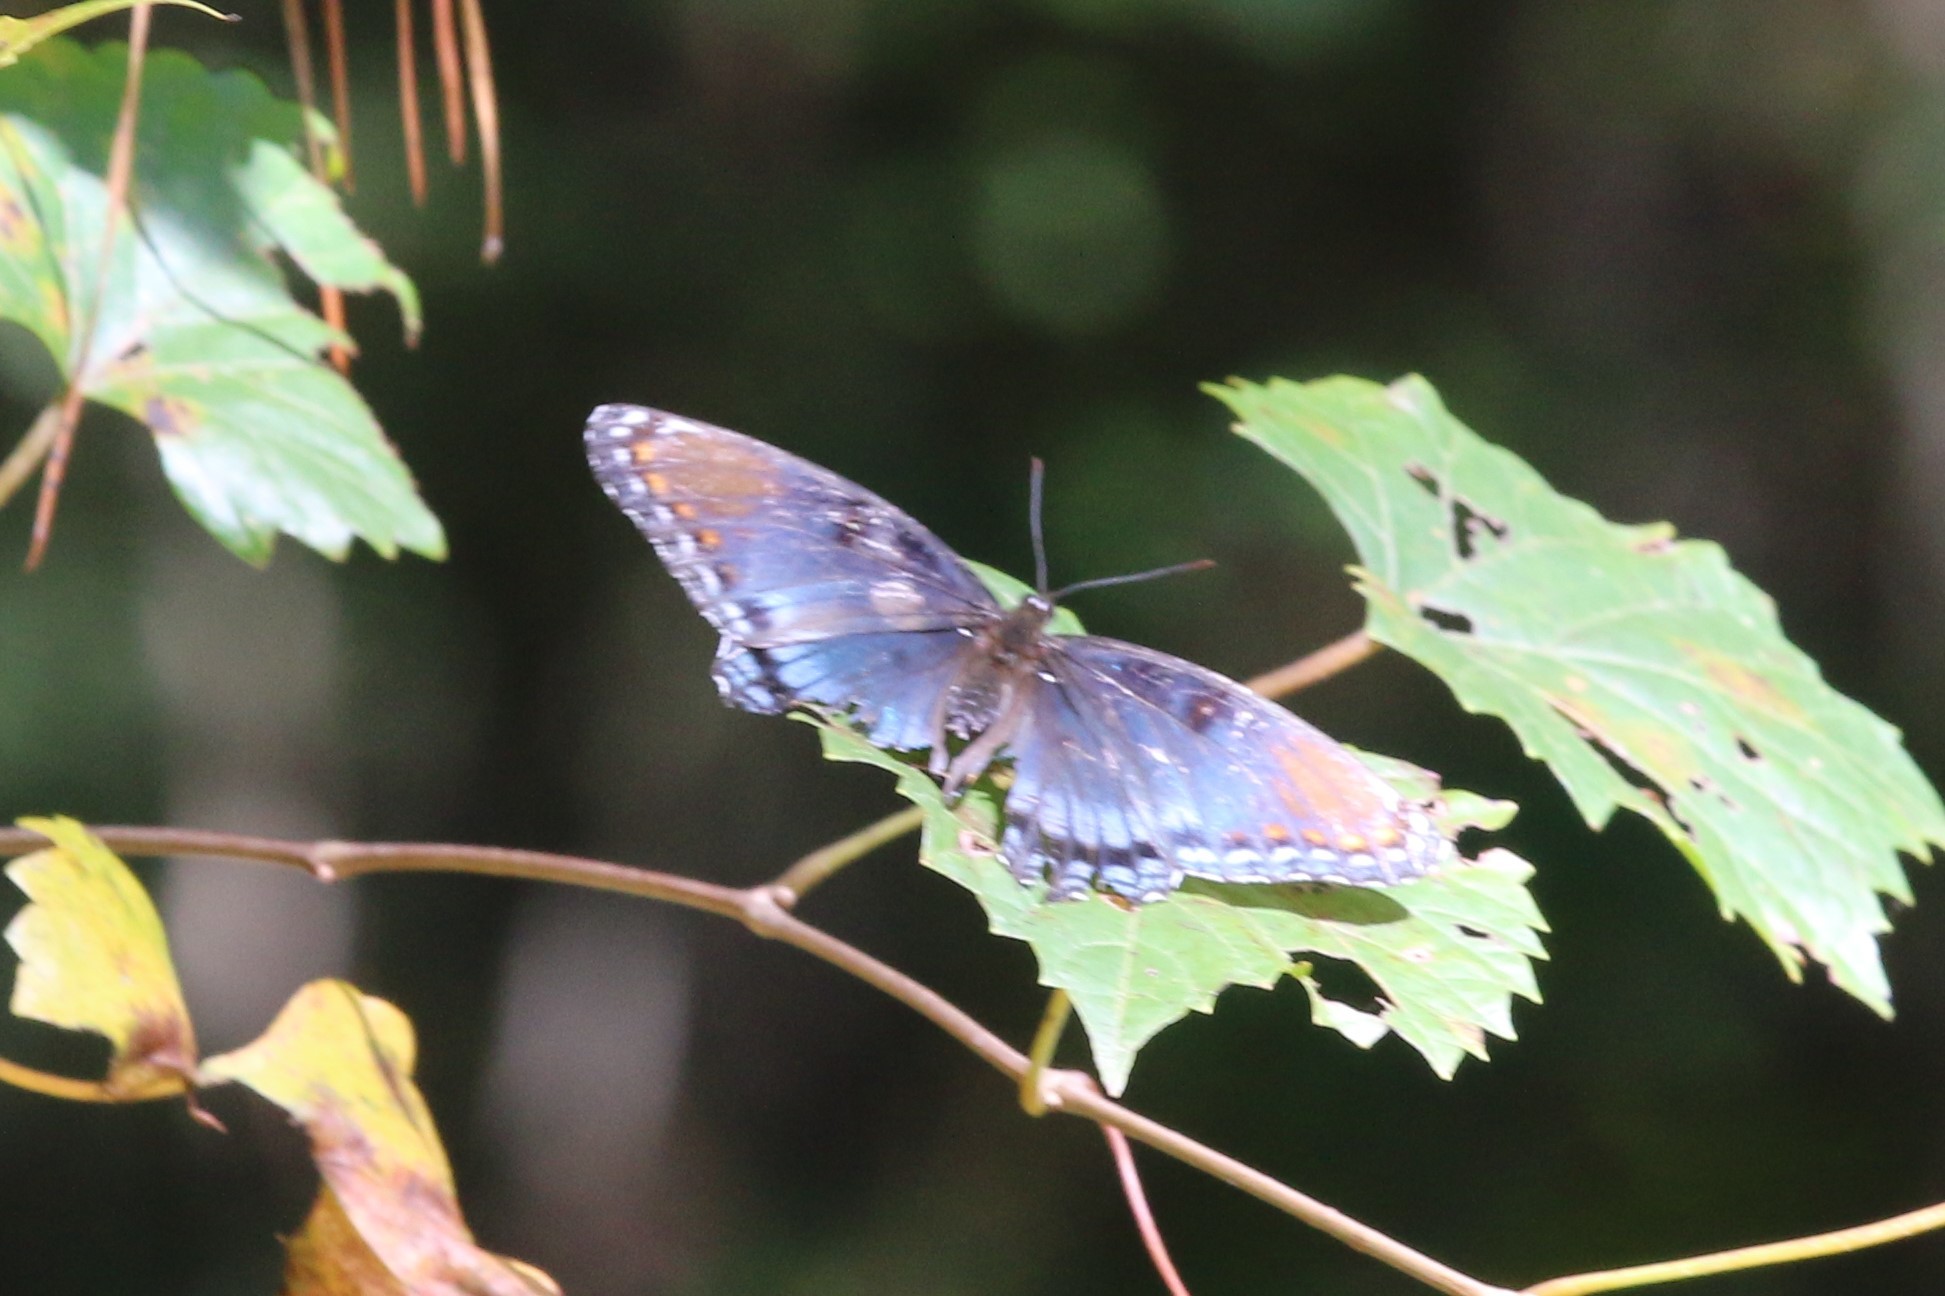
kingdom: Animalia
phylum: Arthropoda
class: Insecta
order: Lepidoptera
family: Nymphalidae
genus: Limenitis
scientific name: Limenitis astyanax
